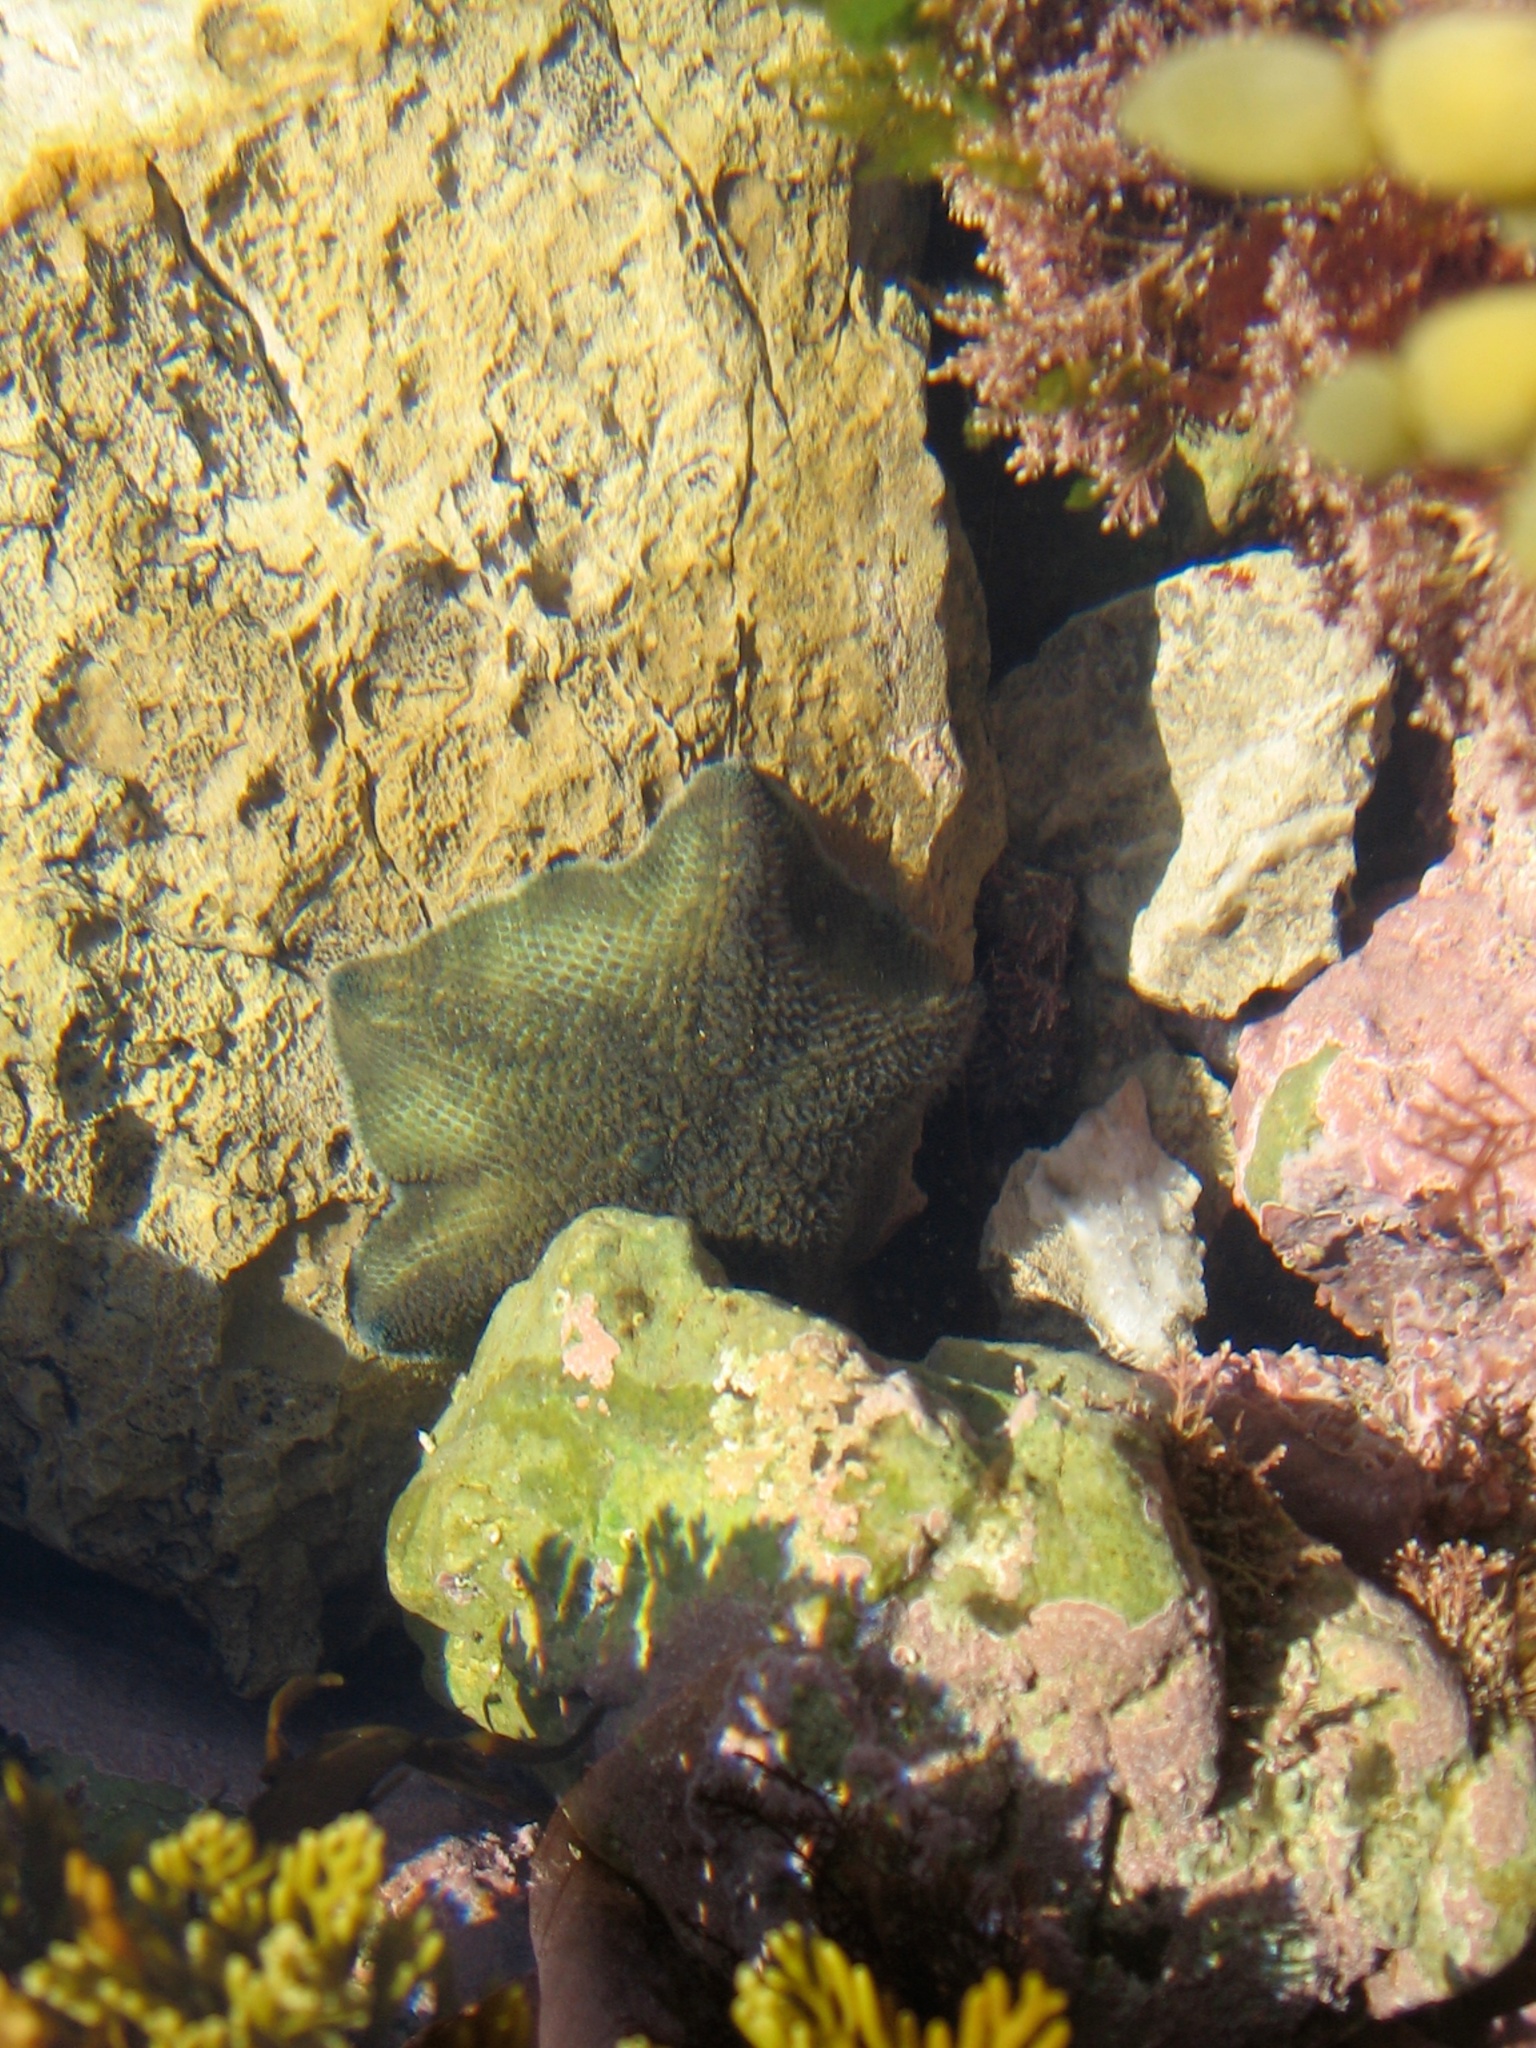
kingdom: Animalia
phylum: Echinodermata
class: Asteroidea
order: Valvatida
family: Asterinidae
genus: Patiriella
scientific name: Patiriella regularis
